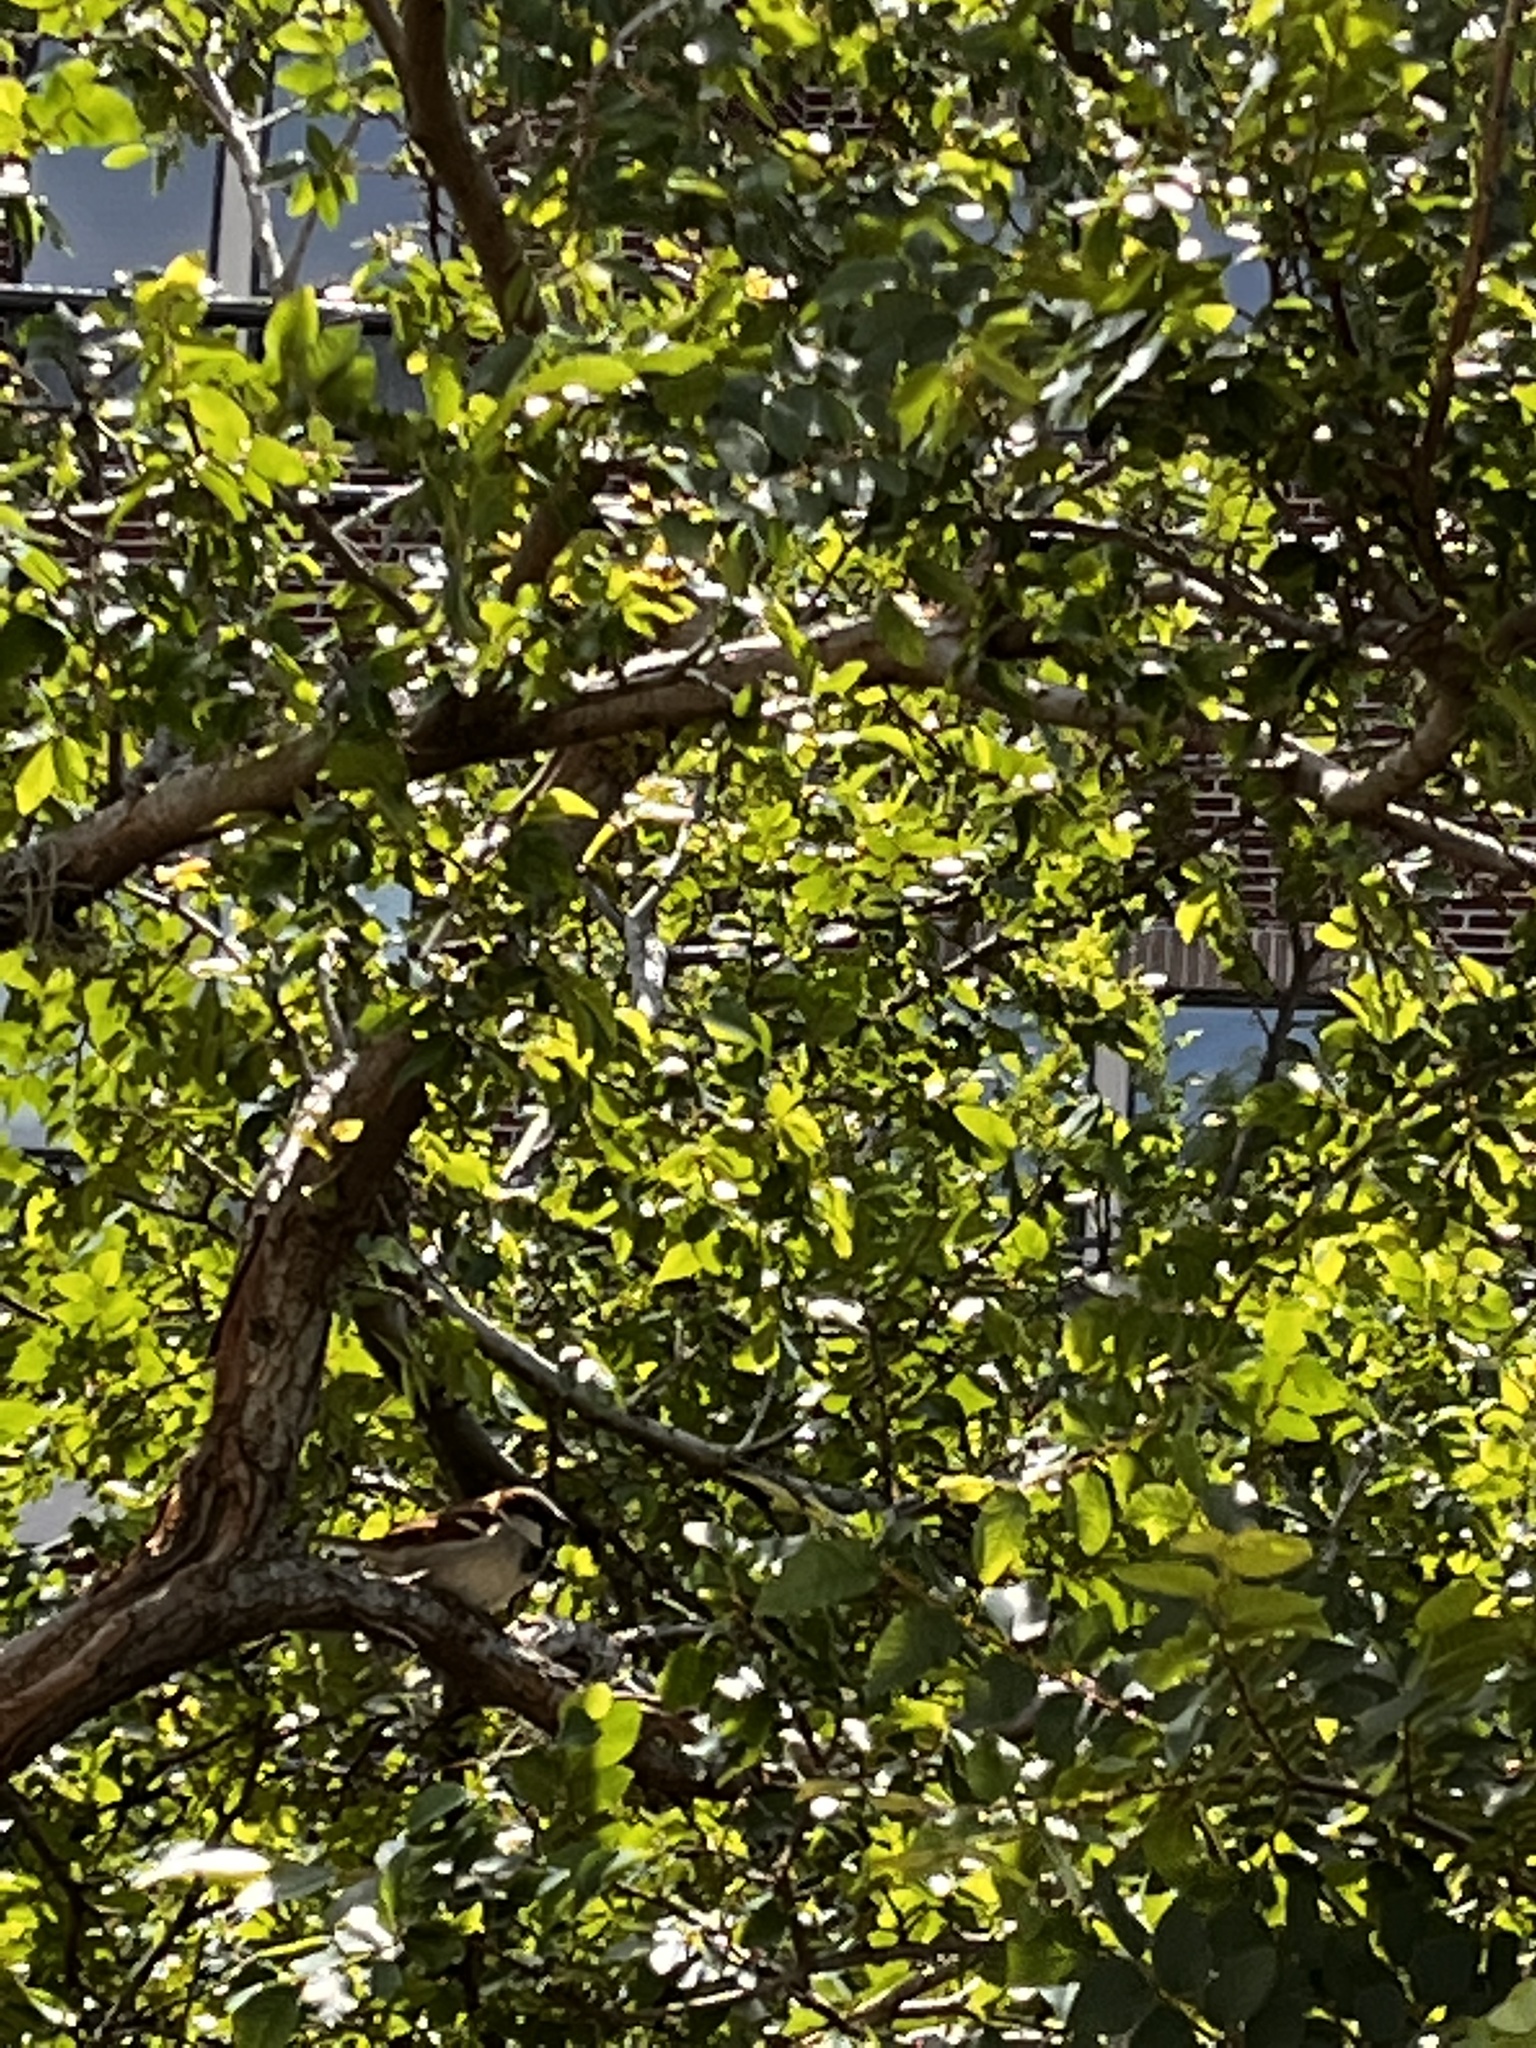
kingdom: Animalia
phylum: Chordata
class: Aves
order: Passeriformes
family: Passeridae
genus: Passer
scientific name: Passer domesticus
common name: House sparrow
